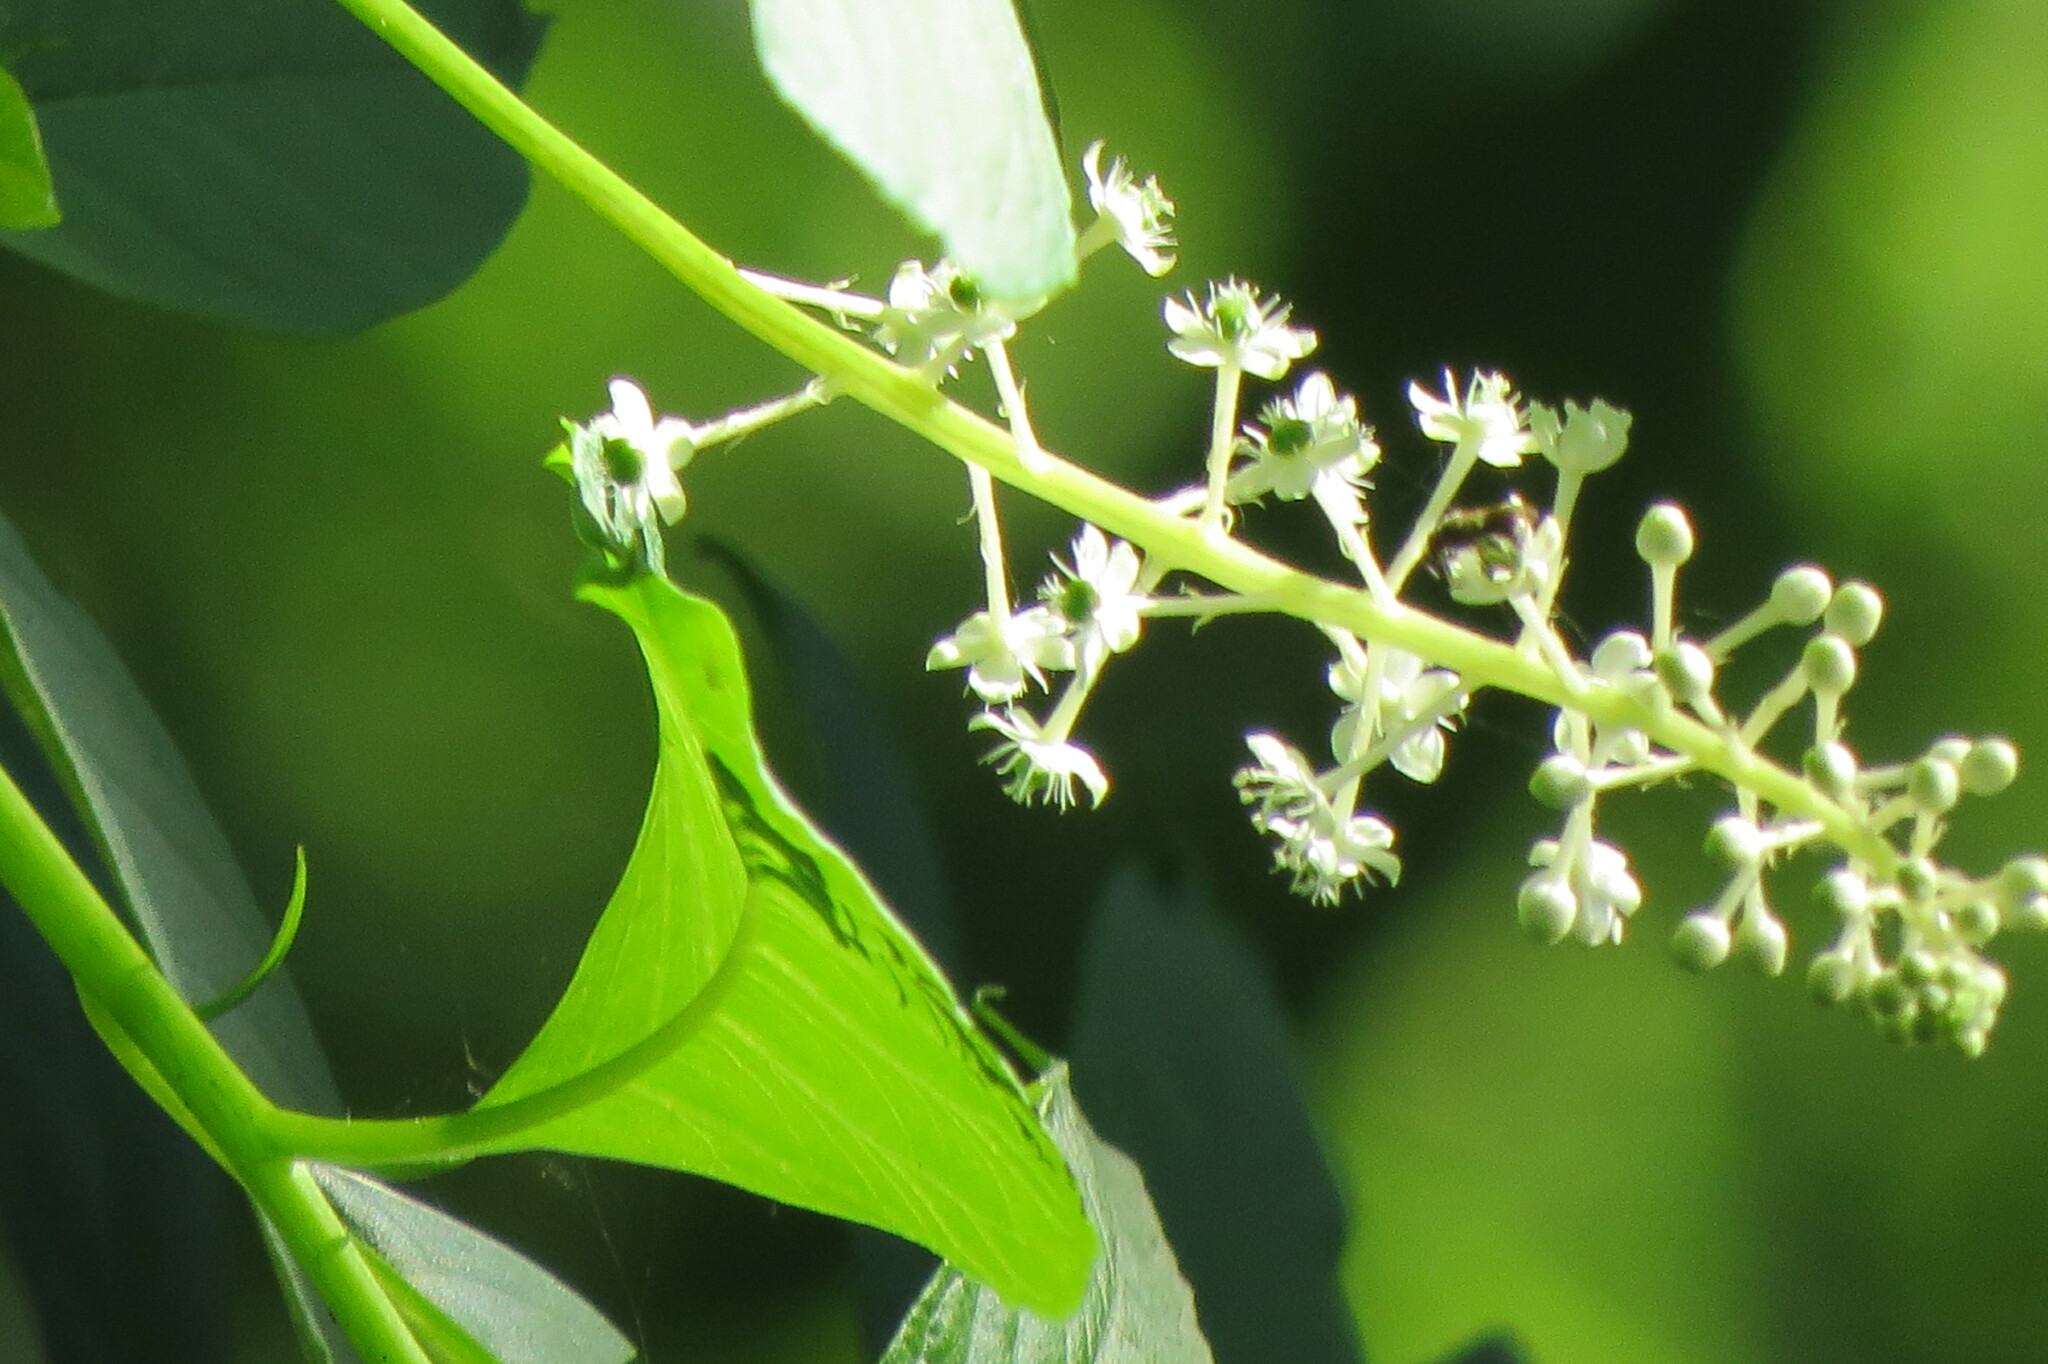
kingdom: Plantae
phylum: Tracheophyta
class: Magnoliopsida
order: Caryophyllales
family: Phytolaccaceae
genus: Phytolacca
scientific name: Phytolacca americana
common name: American pokeweed
